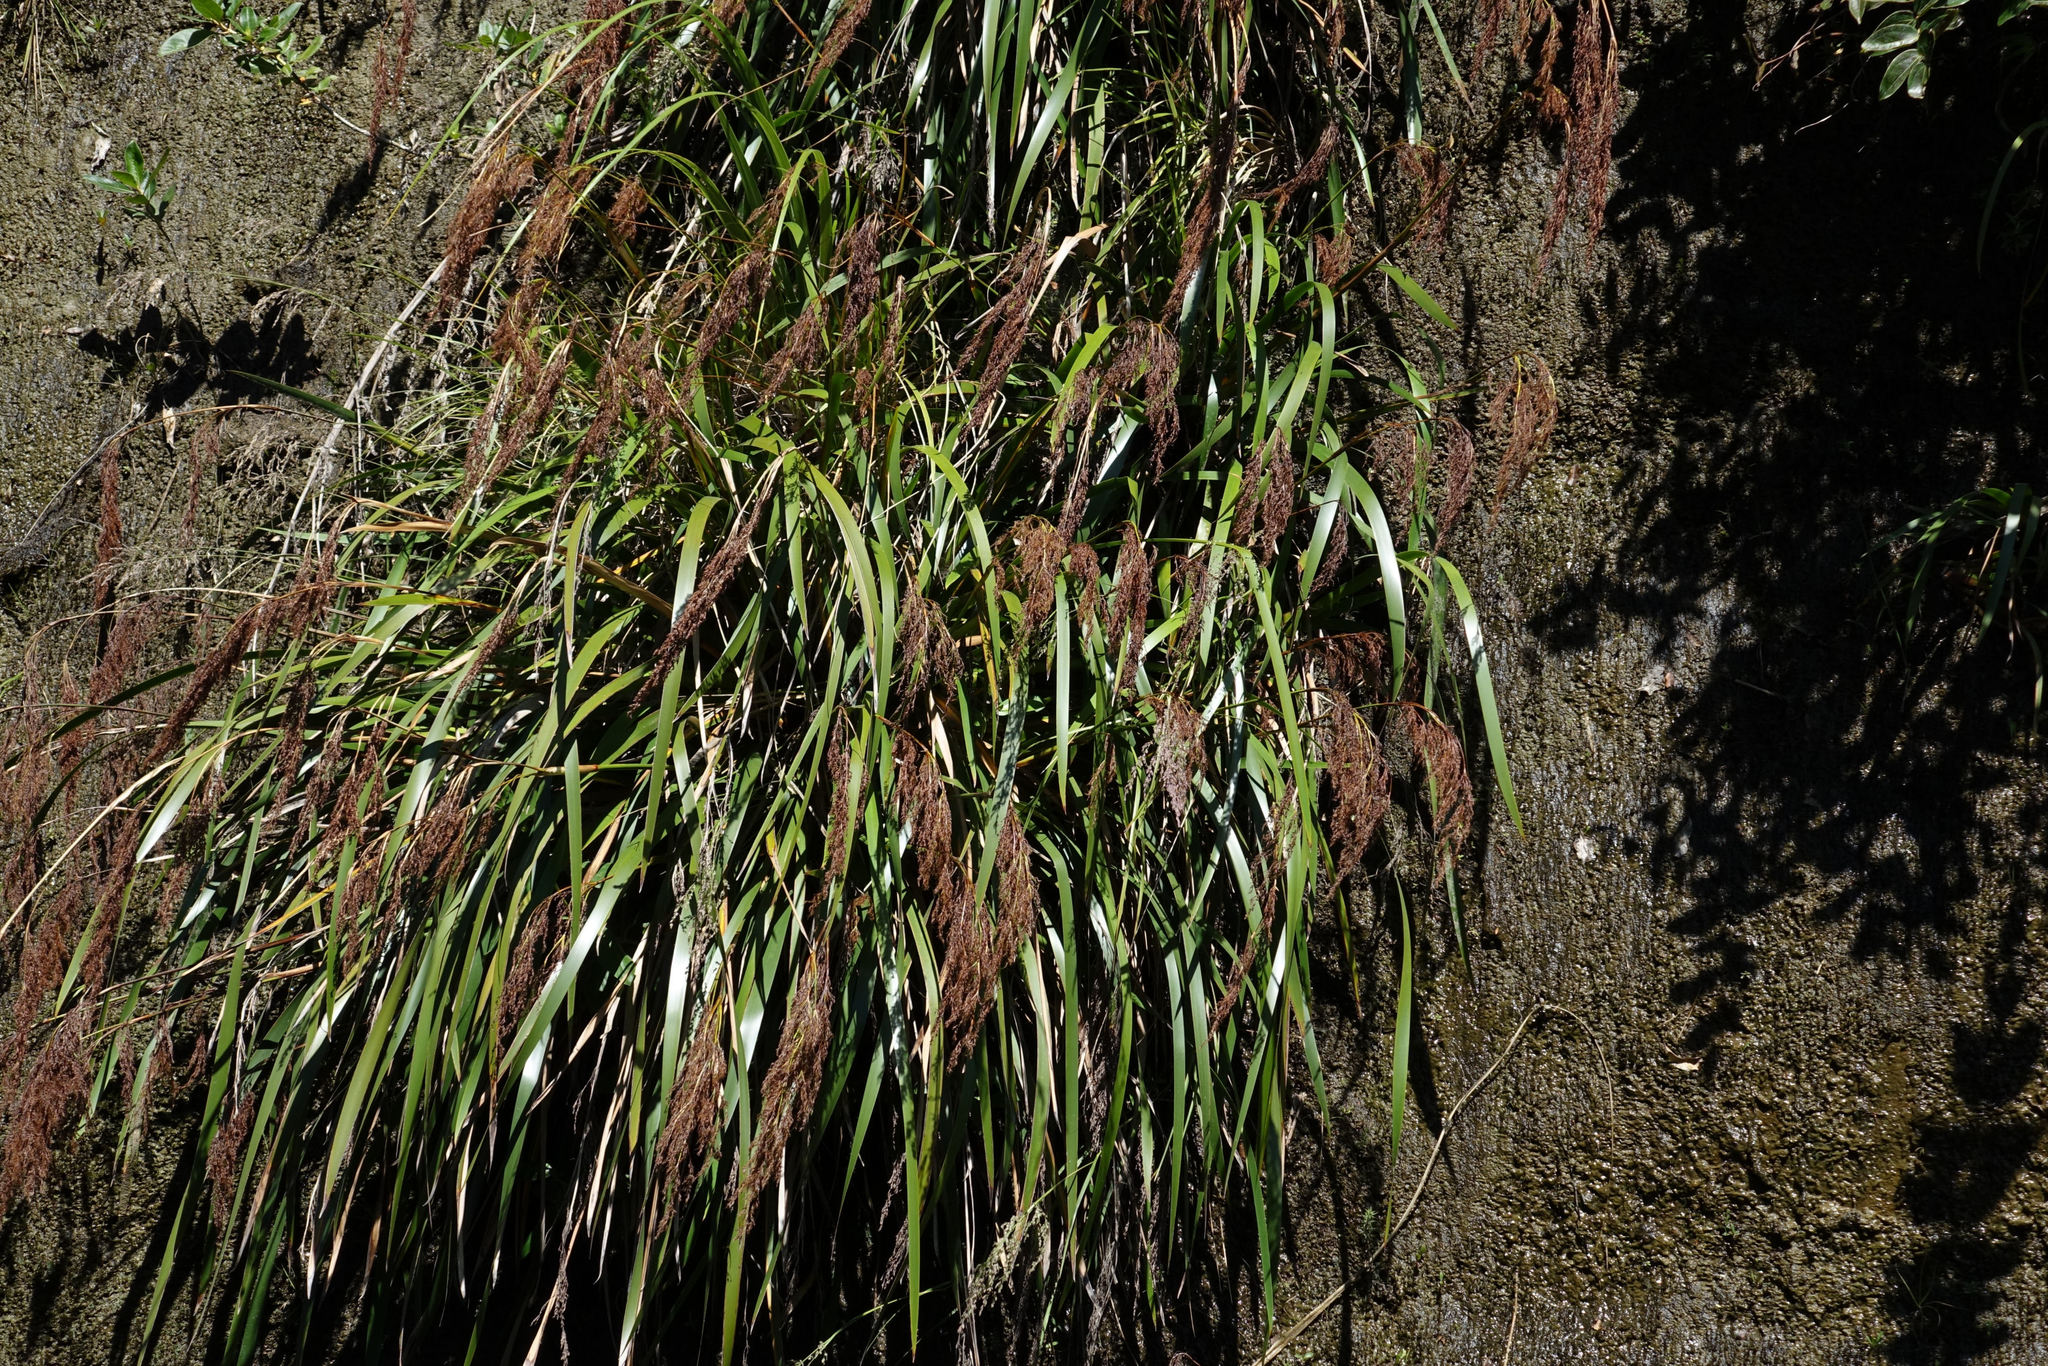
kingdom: Plantae
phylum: Tracheophyta
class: Liliopsida
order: Poales
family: Cyperaceae
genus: Machaerina
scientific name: Machaerina sinclairii
